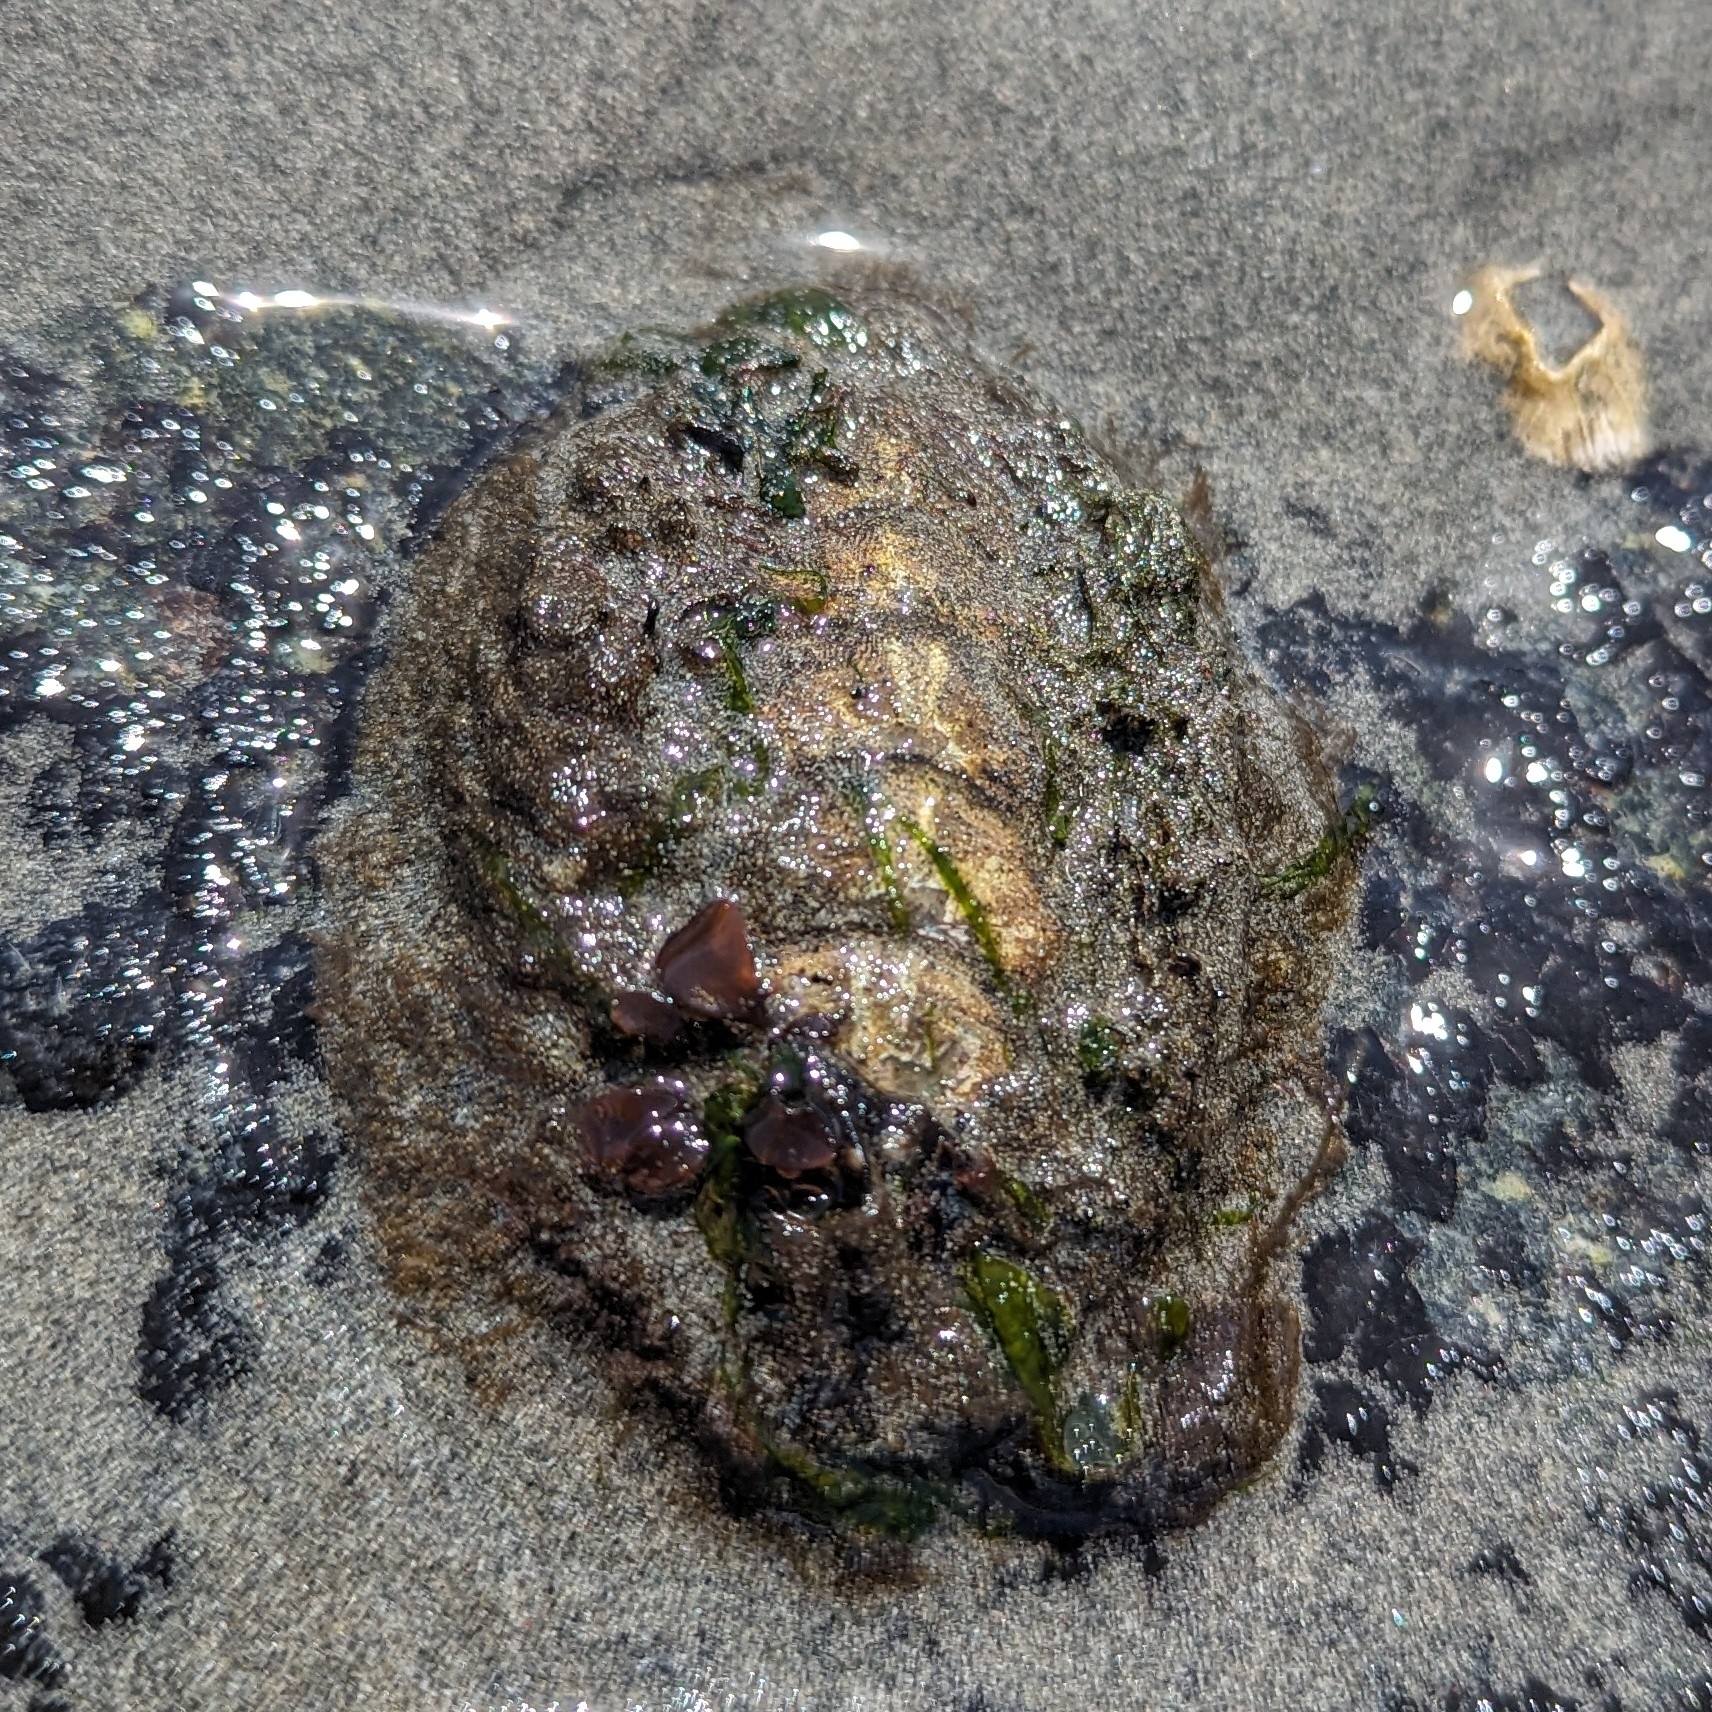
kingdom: Animalia
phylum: Mollusca
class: Polyplacophora
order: Chitonida
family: Mopaliidae
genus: Mopalia
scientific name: Mopalia muscosa
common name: Mossy chiton
